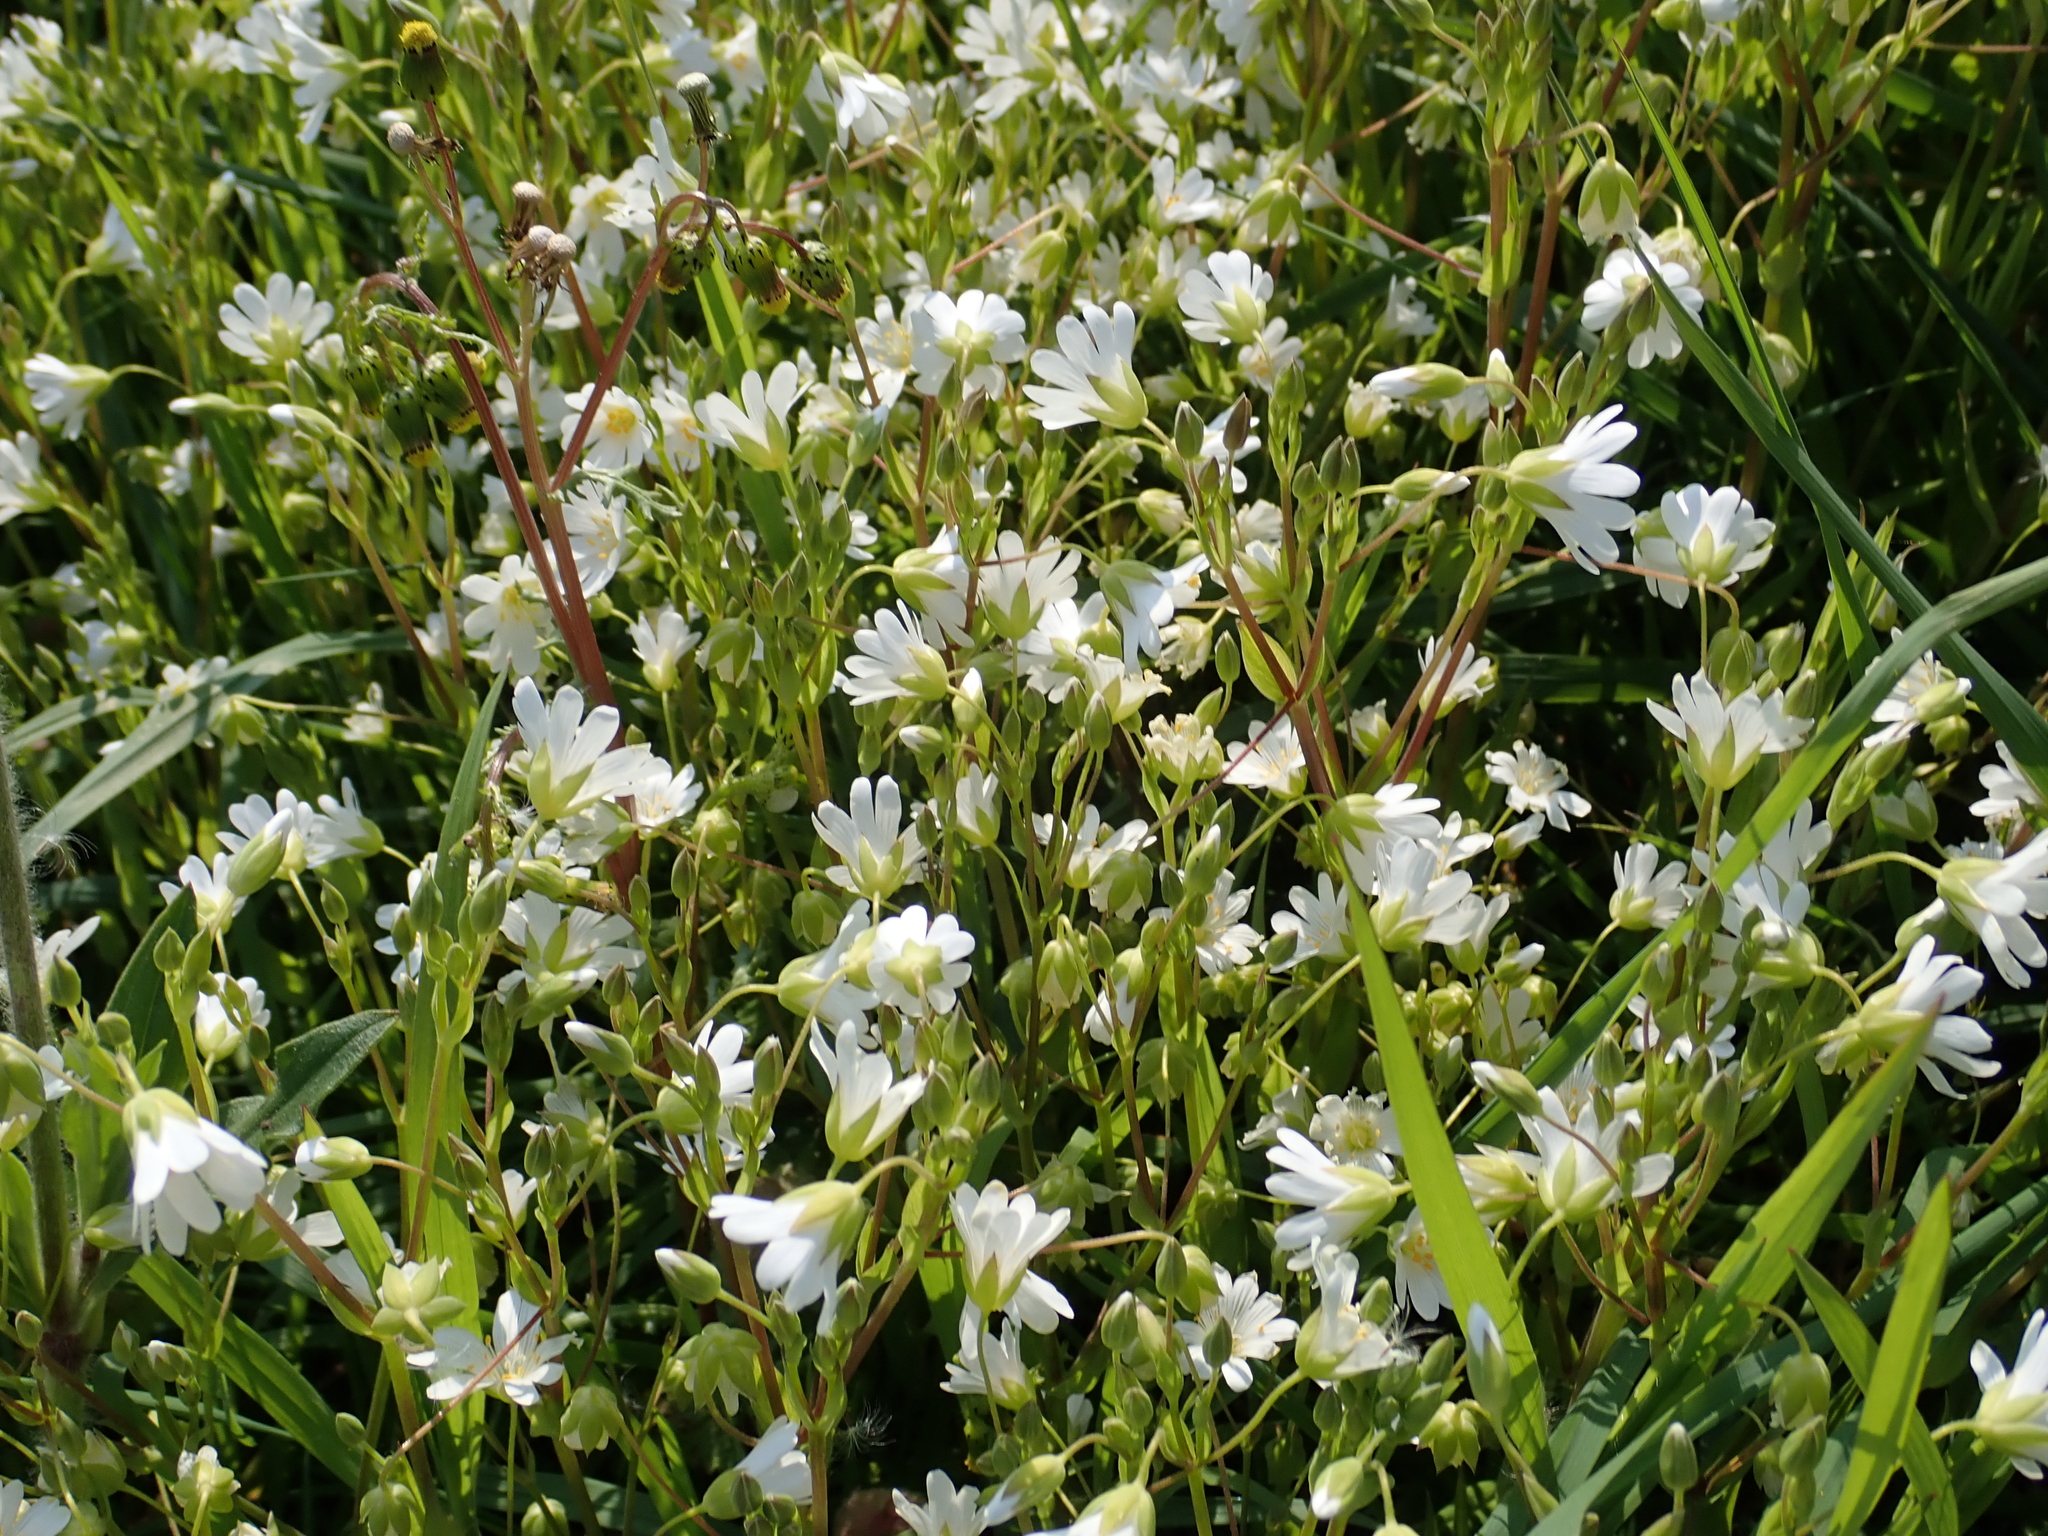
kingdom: Plantae
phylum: Tracheophyta
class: Magnoliopsida
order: Caryophyllales
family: Caryophyllaceae
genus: Rabelera
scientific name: Rabelera holostea
